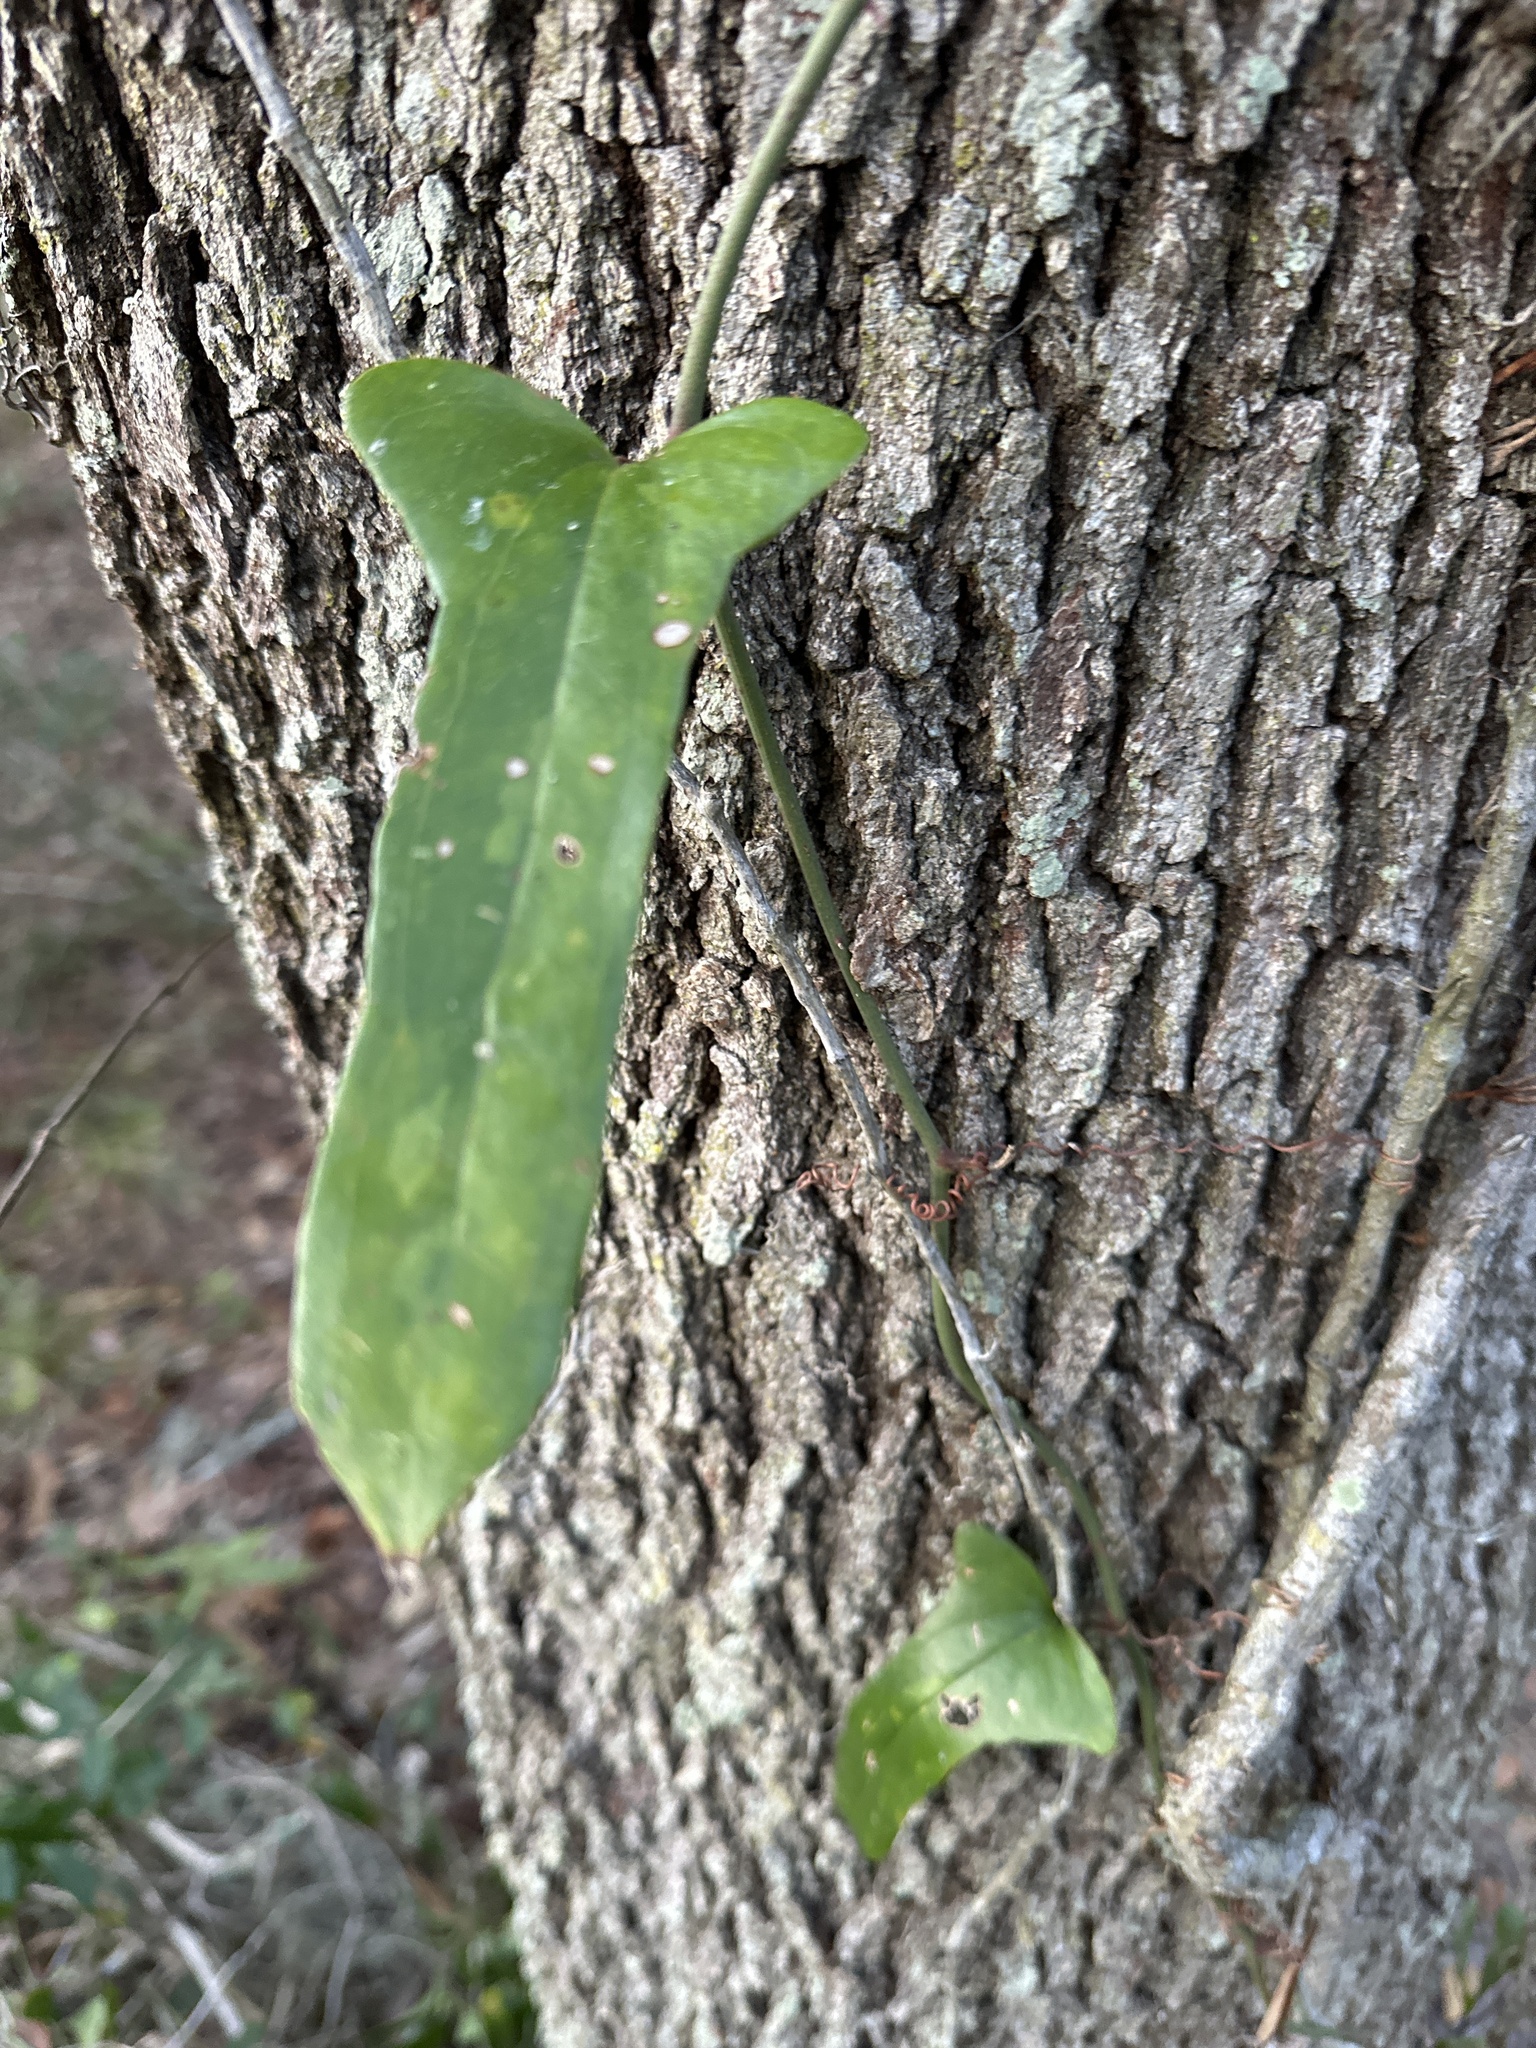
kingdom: Plantae
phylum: Tracheophyta
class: Liliopsida
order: Liliales
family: Smilacaceae
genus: Smilax
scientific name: Smilax auriculata
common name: Wild bamboo
